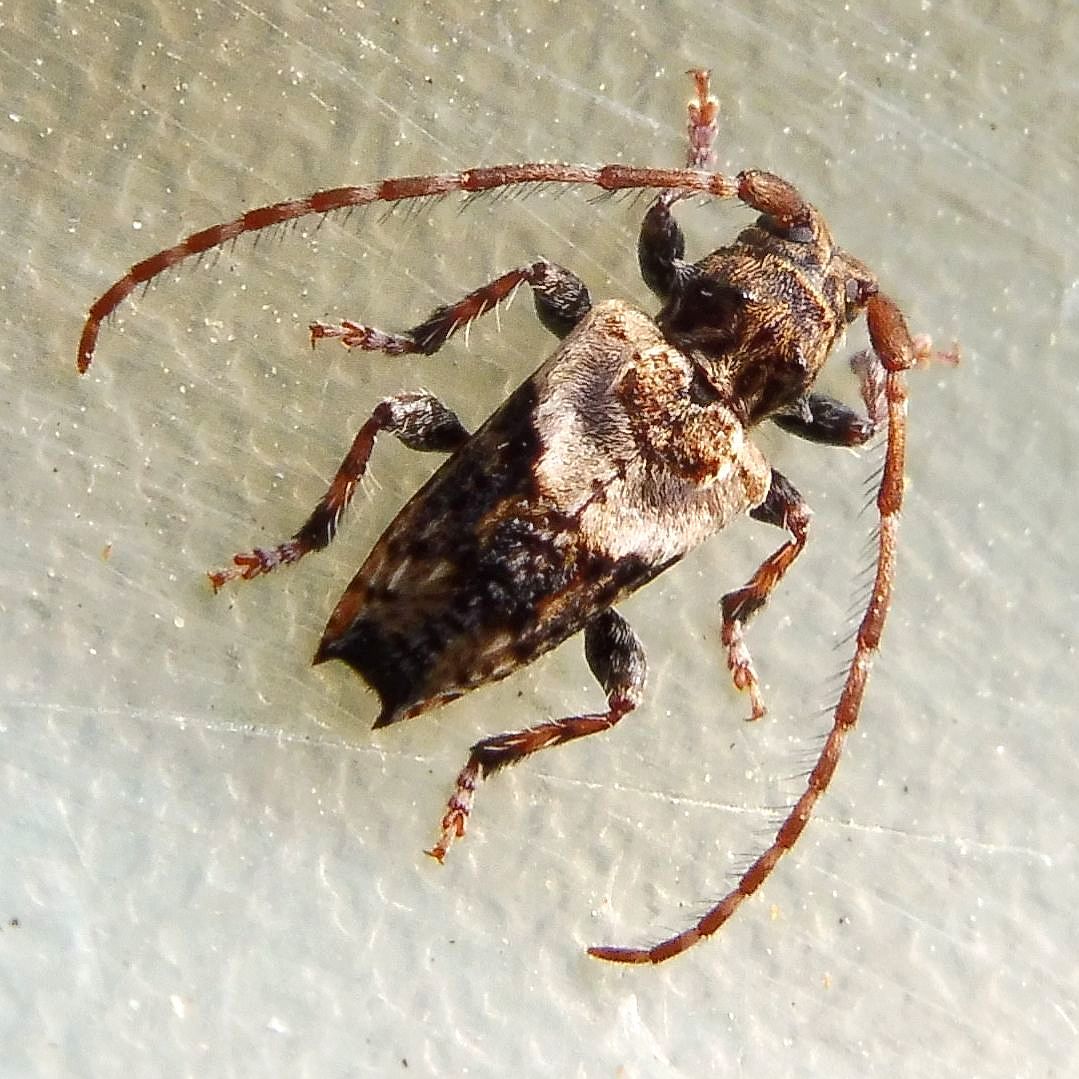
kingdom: Animalia
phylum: Arthropoda
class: Insecta
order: Coleoptera
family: Cerambycidae
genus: Pogonocherus
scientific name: Pogonocherus hispidus
